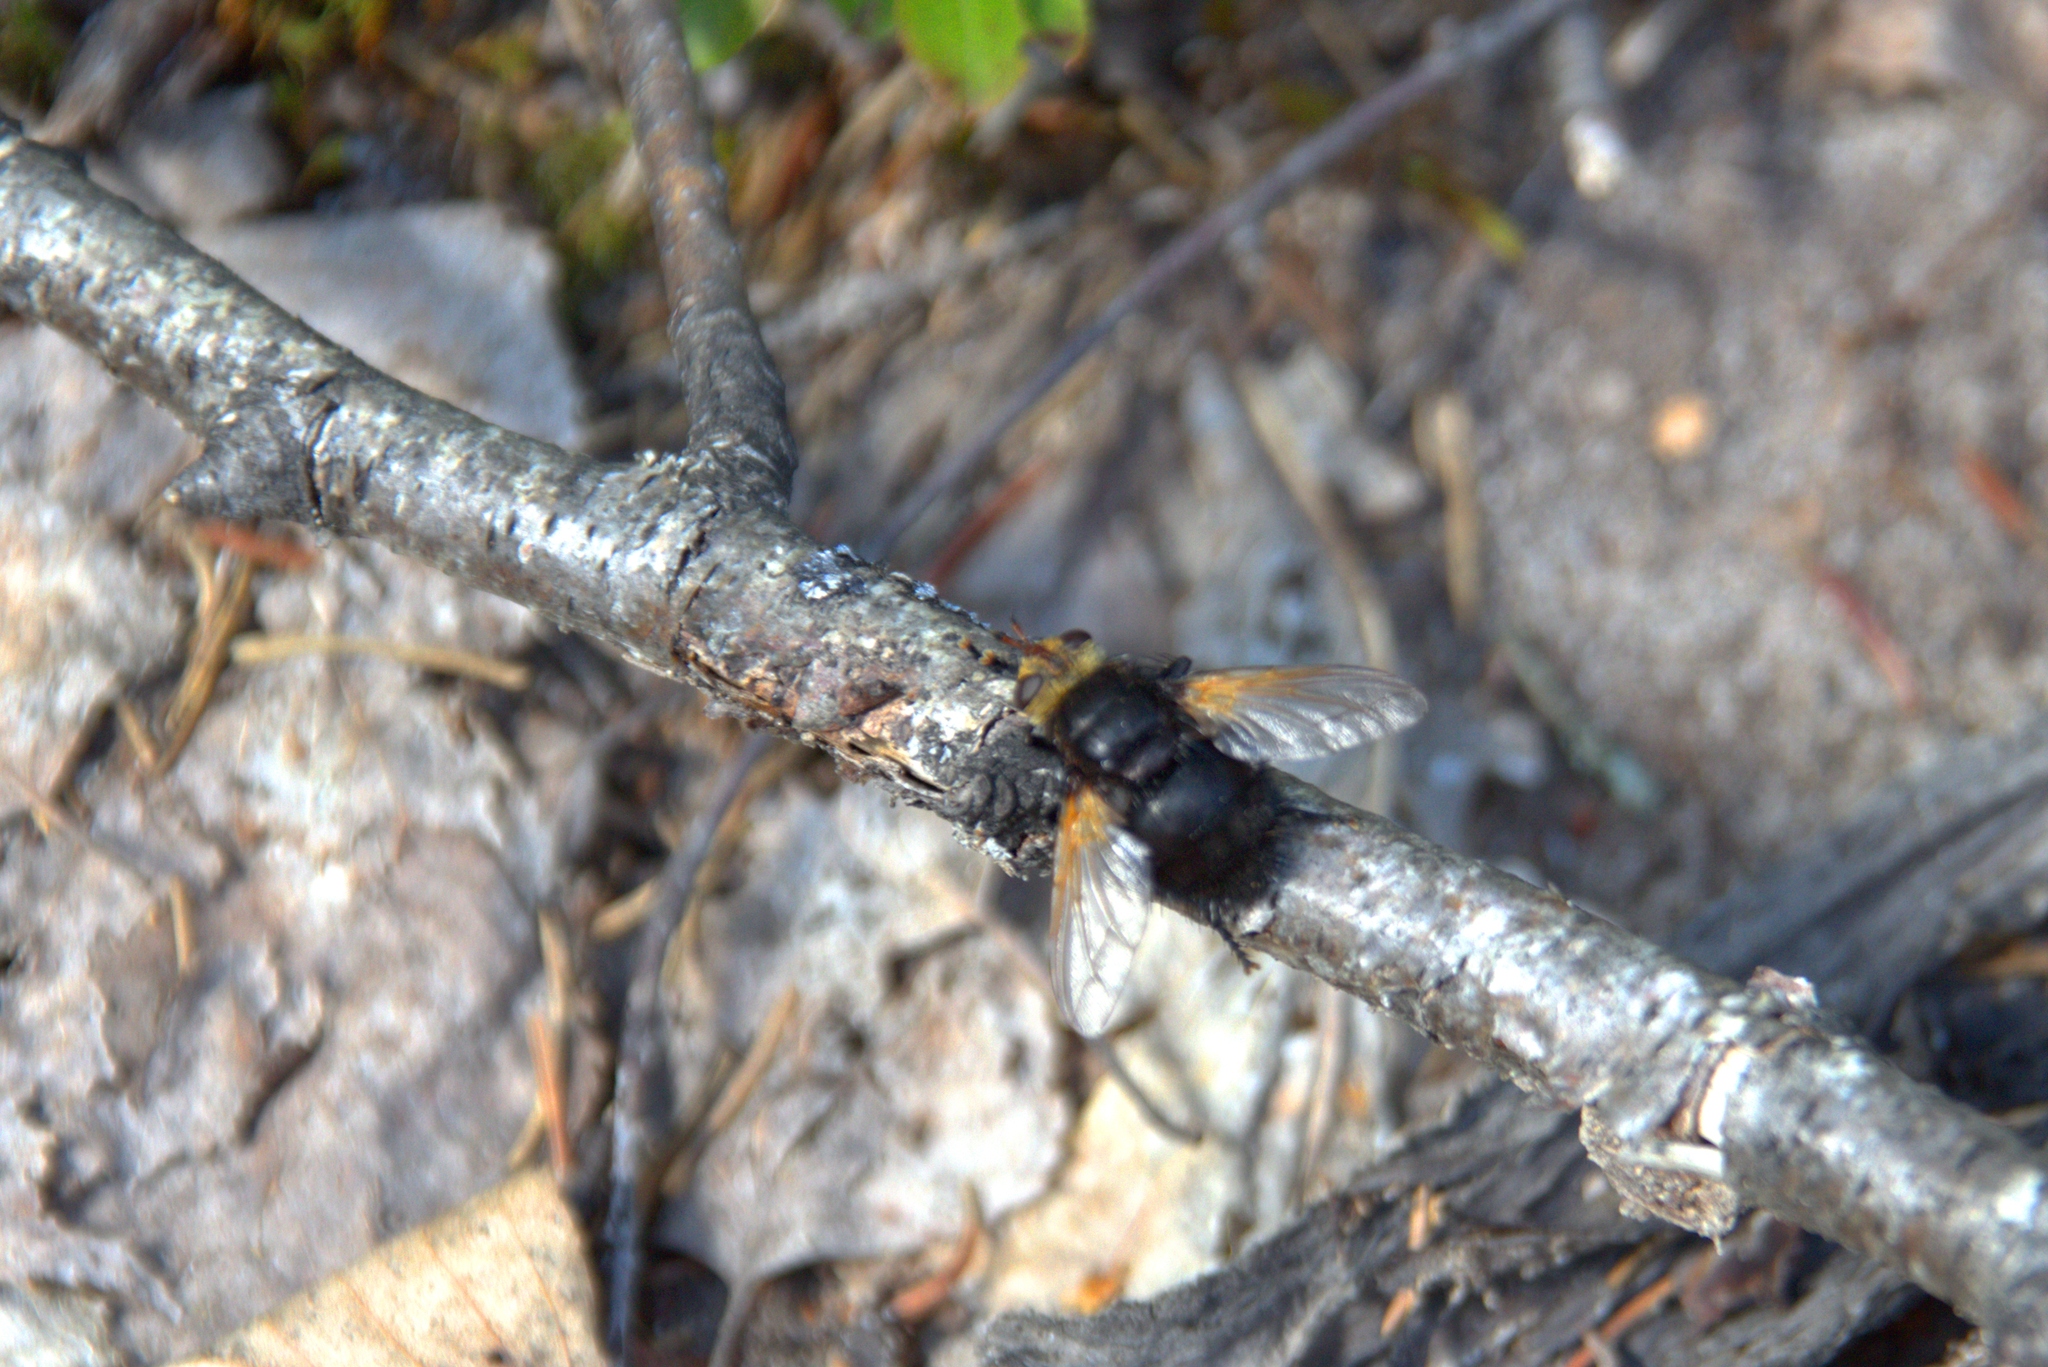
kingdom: Animalia
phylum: Arthropoda
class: Insecta
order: Diptera
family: Tachinidae
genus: Tachina
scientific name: Tachina grossa
